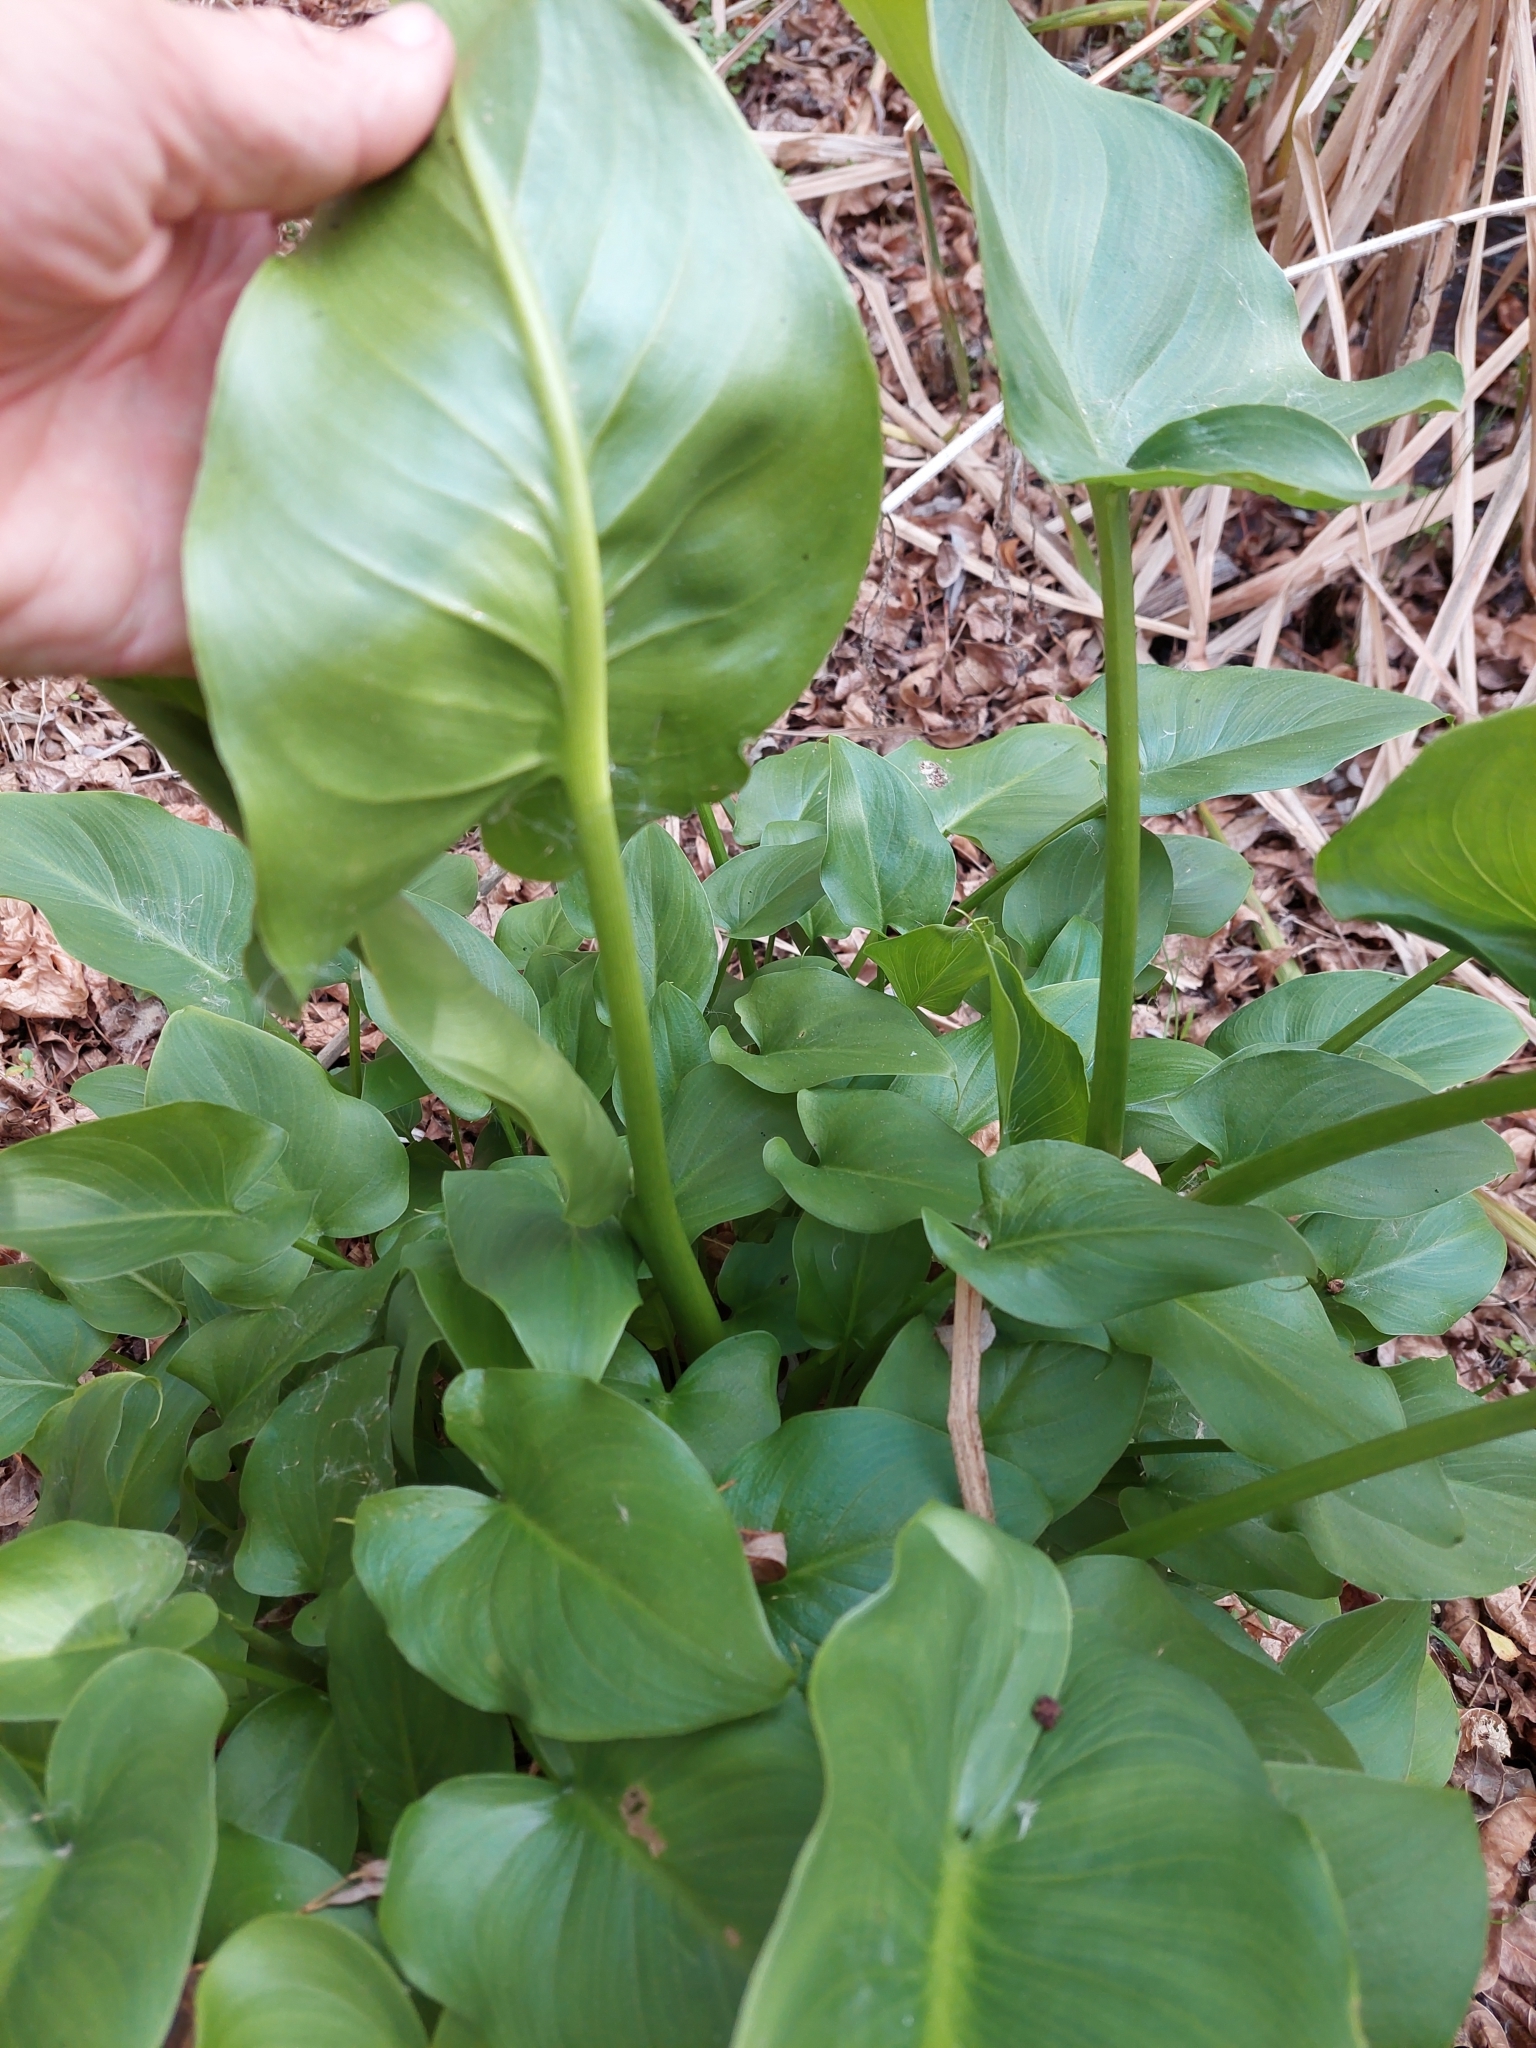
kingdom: Plantae
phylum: Tracheophyta
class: Liliopsida
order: Alismatales
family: Araceae
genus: Zantedeschia
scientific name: Zantedeschia aethiopica
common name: Altar-lily
